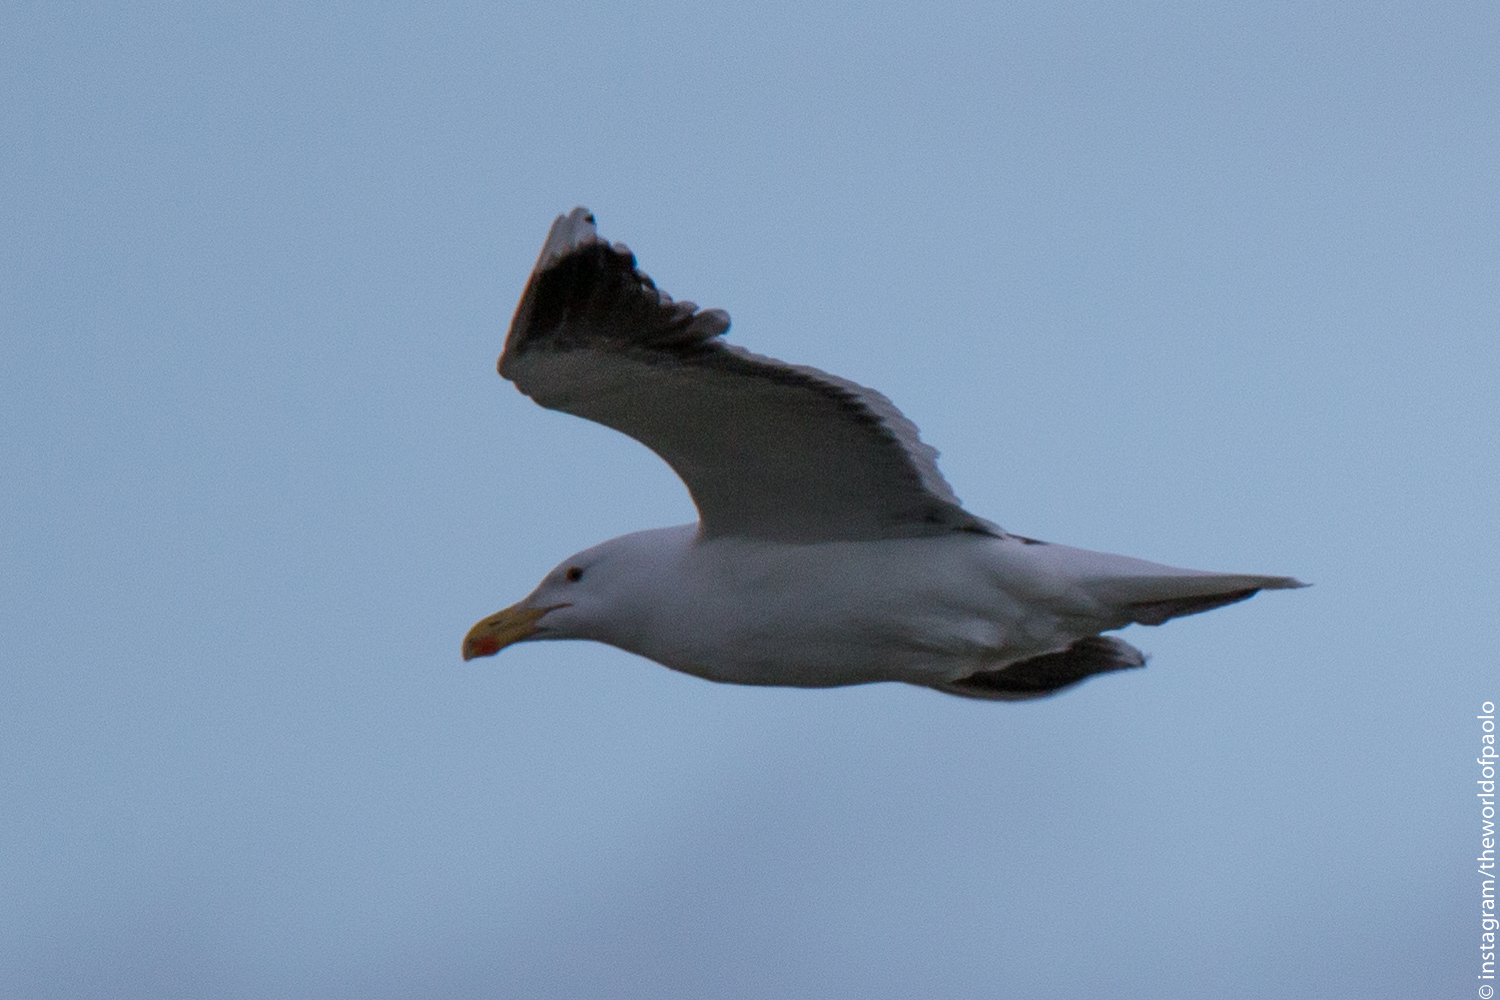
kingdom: Animalia
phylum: Chordata
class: Aves
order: Charadriiformes
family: Laridae
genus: Larus
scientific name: Larus marinus
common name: Great black-backed gull
